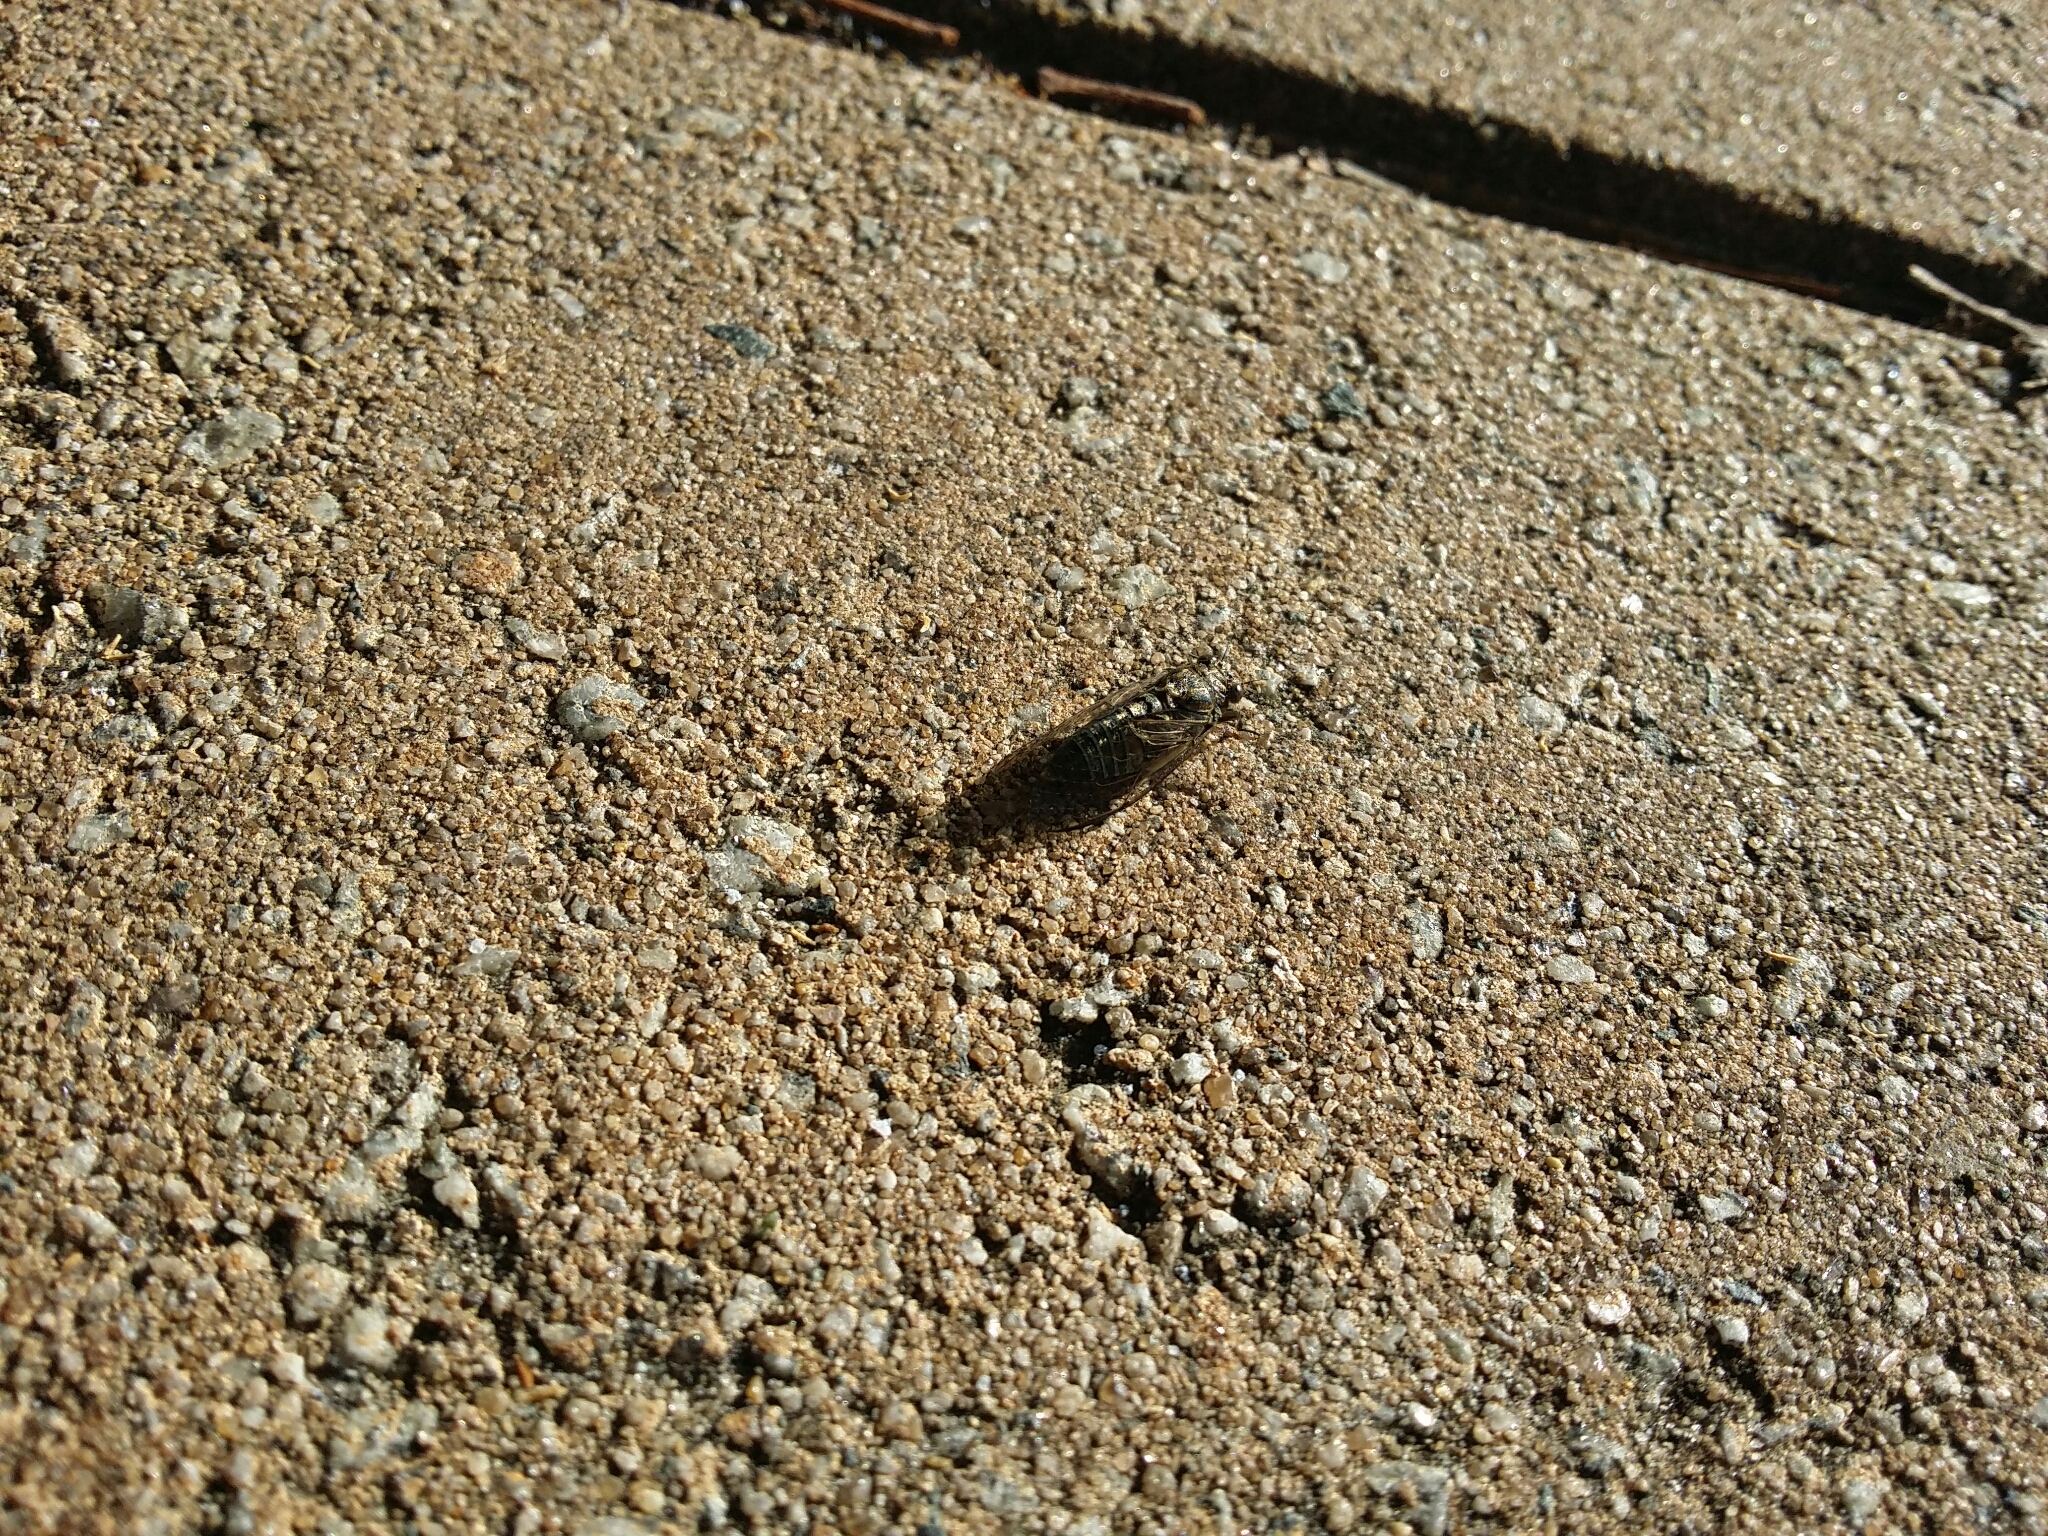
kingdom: Animalia
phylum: Arthropoda
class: Insecta
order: Hemiptera
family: Cicadidae
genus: Physeema
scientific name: Physeema quadricincta
